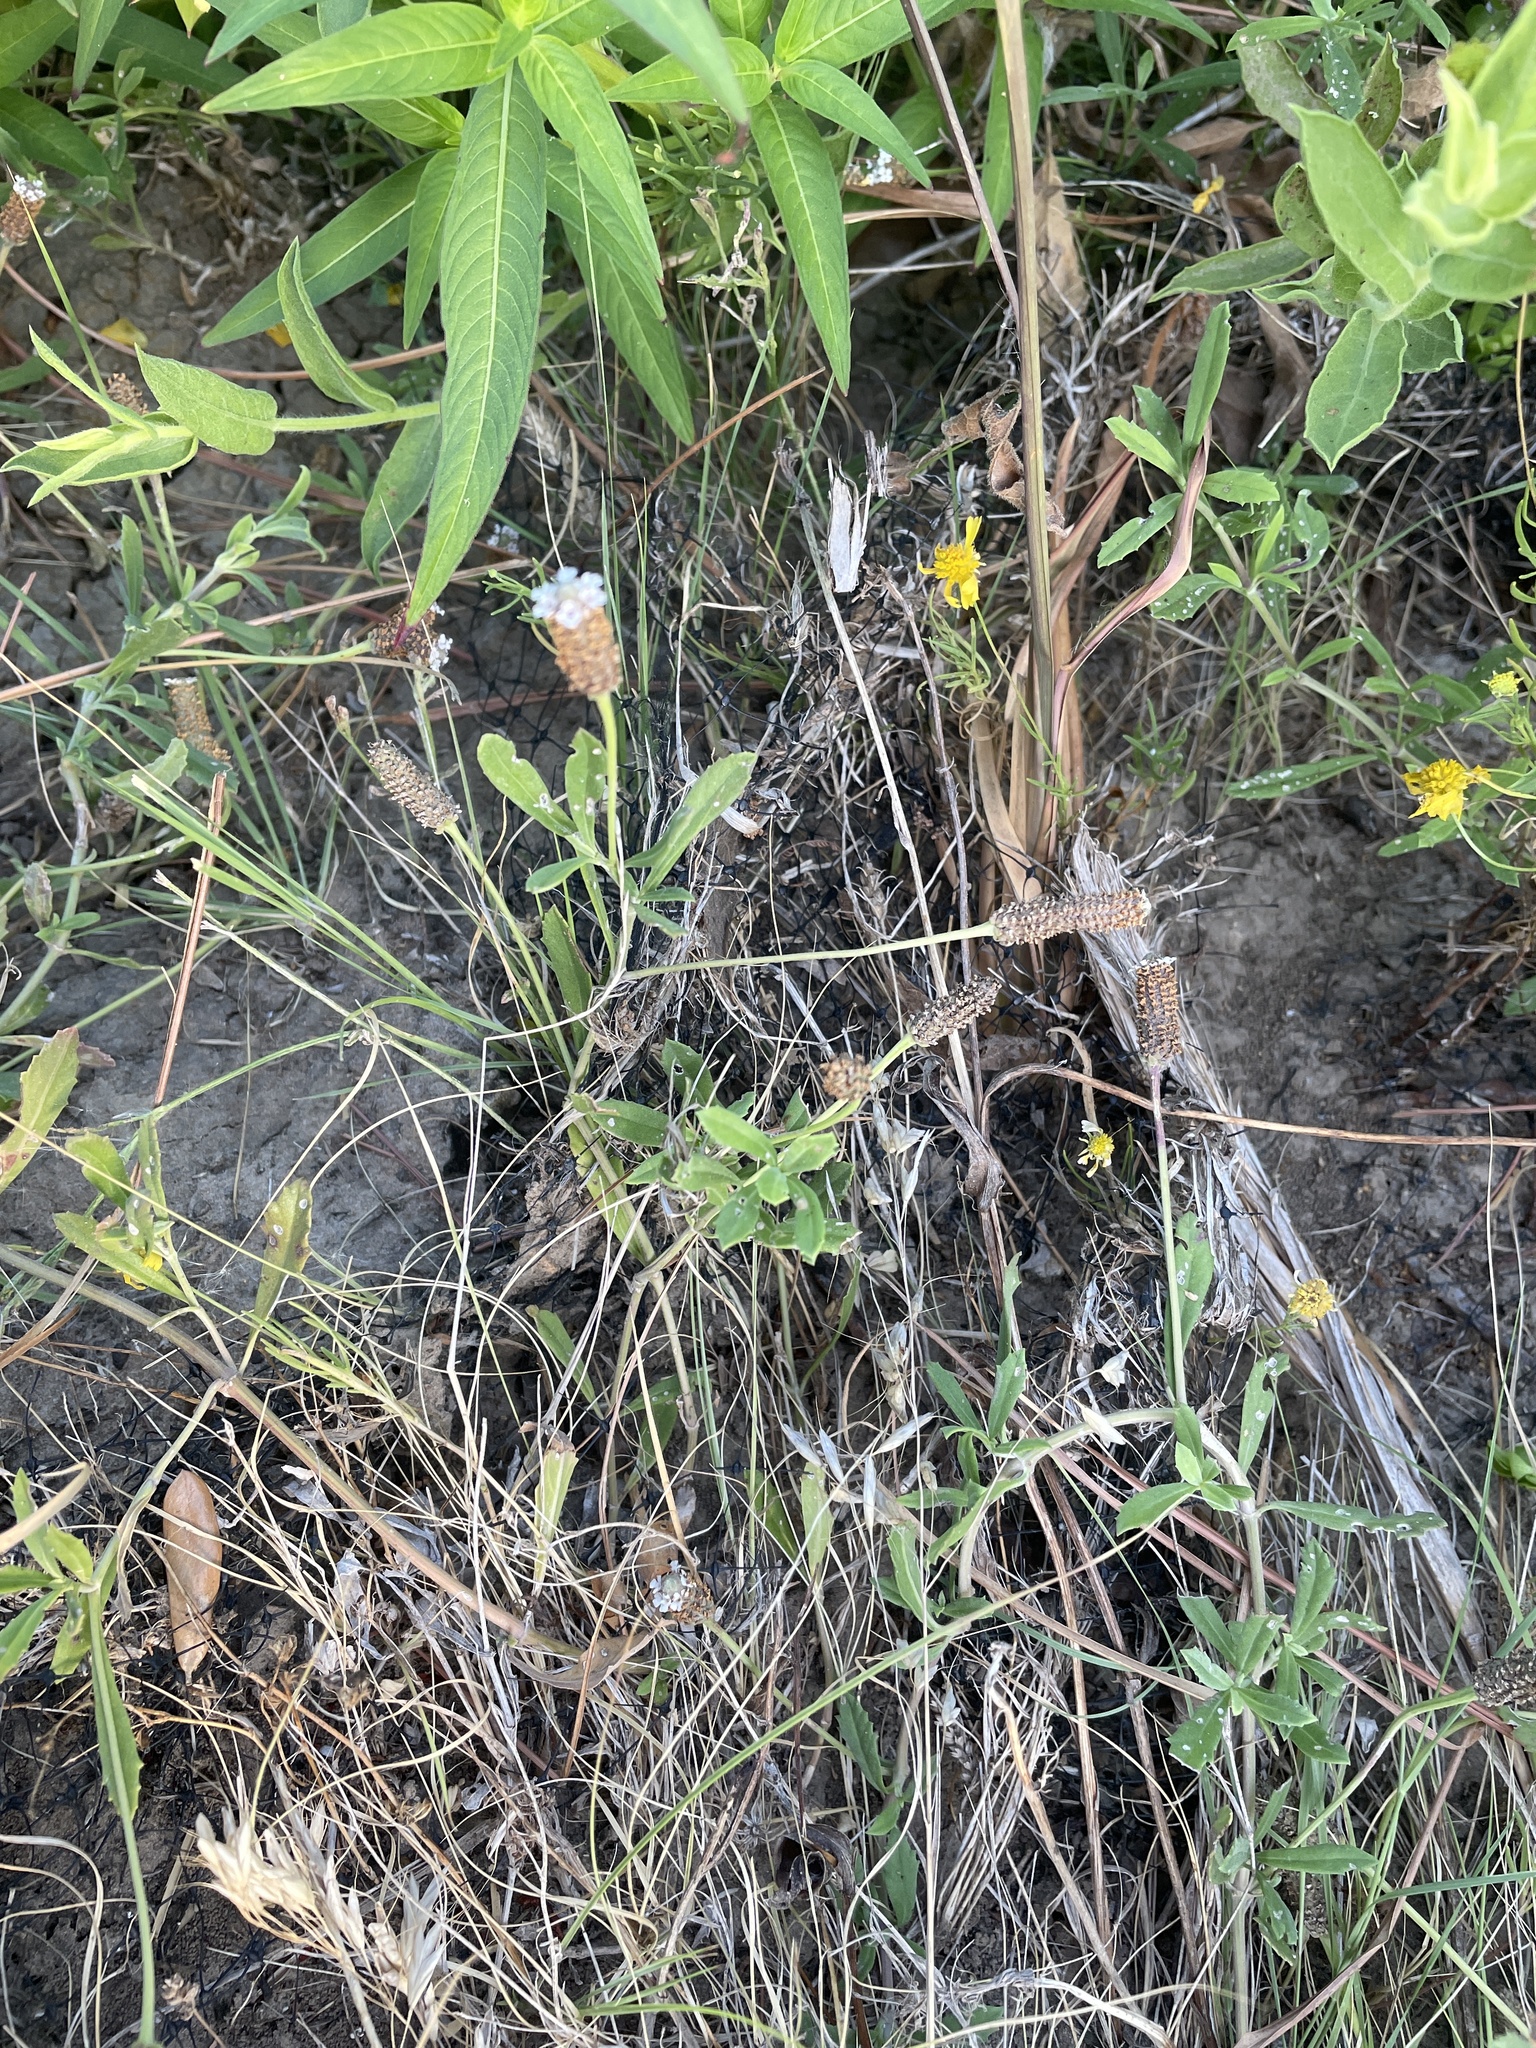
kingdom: Plantae
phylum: Tracheophyta
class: Magnoliopsida
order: Lamiales
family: Verbenaceae
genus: Phyla
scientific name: Phyla nodiflora
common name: Frogfruit
